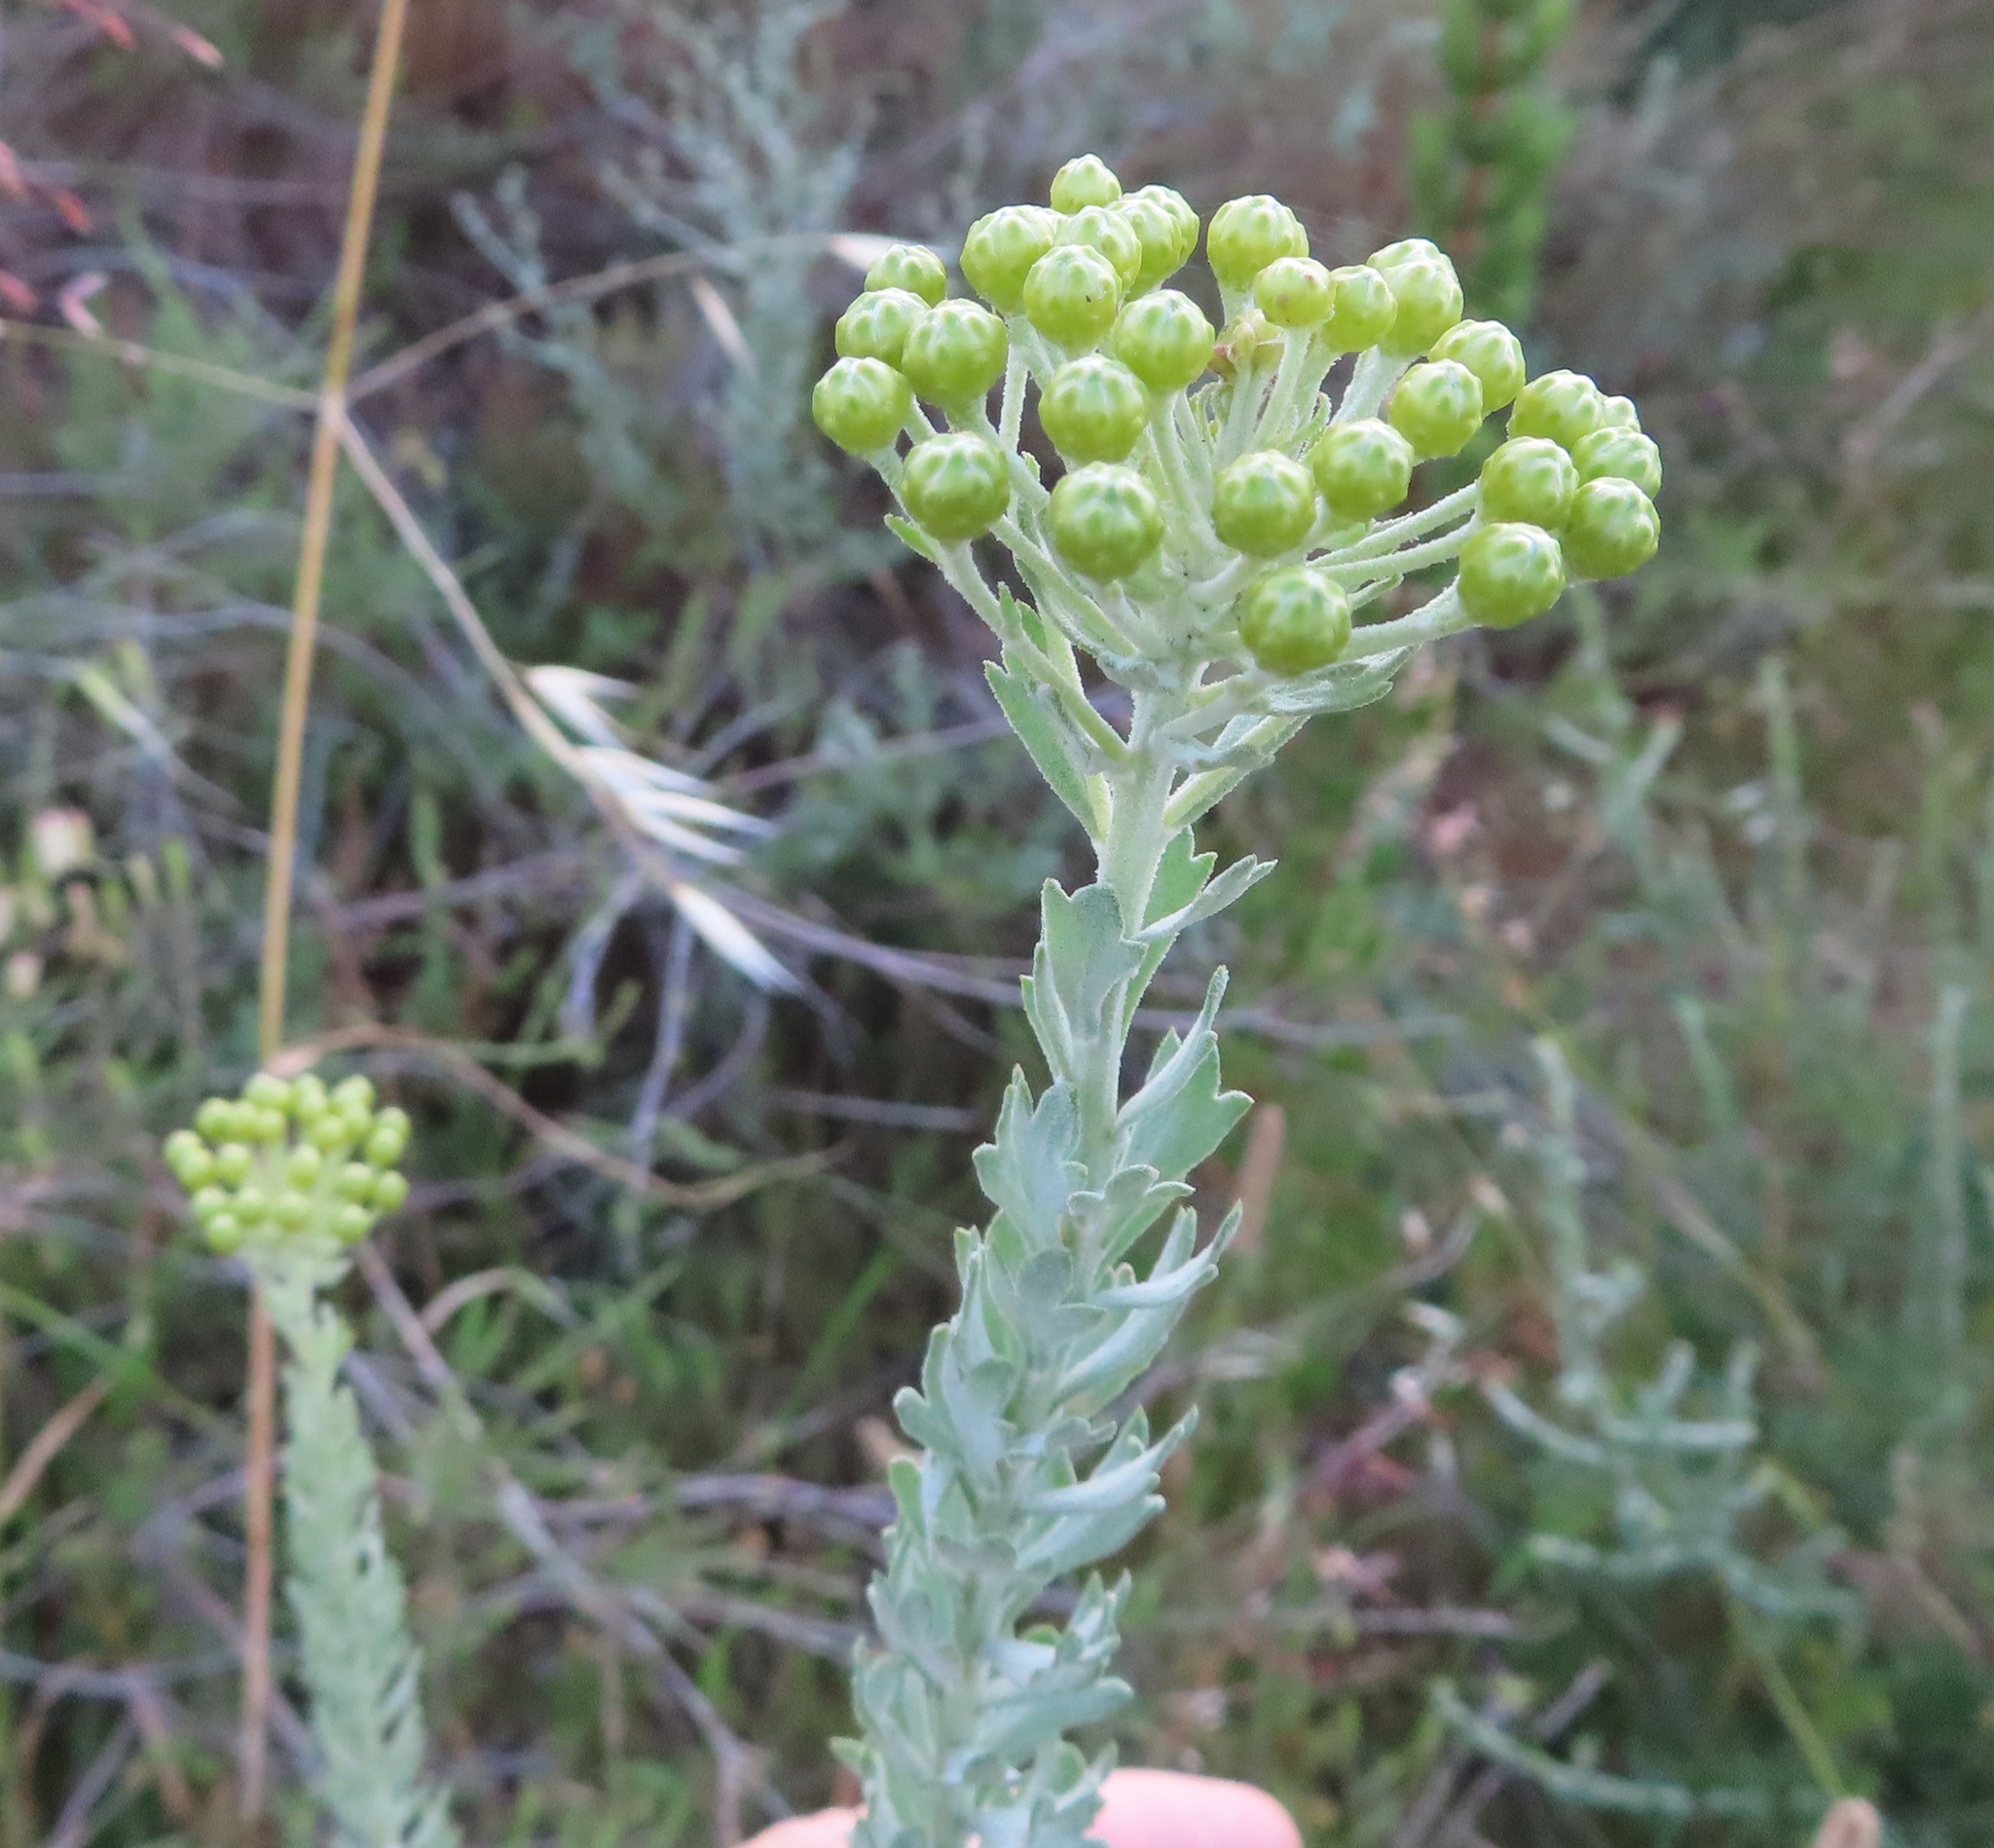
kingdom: Plantae
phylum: Tracheophyta
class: Magnoliopsida
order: Asterales
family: Asteraceae
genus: Athanasia
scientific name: Athanasia trifurcata
